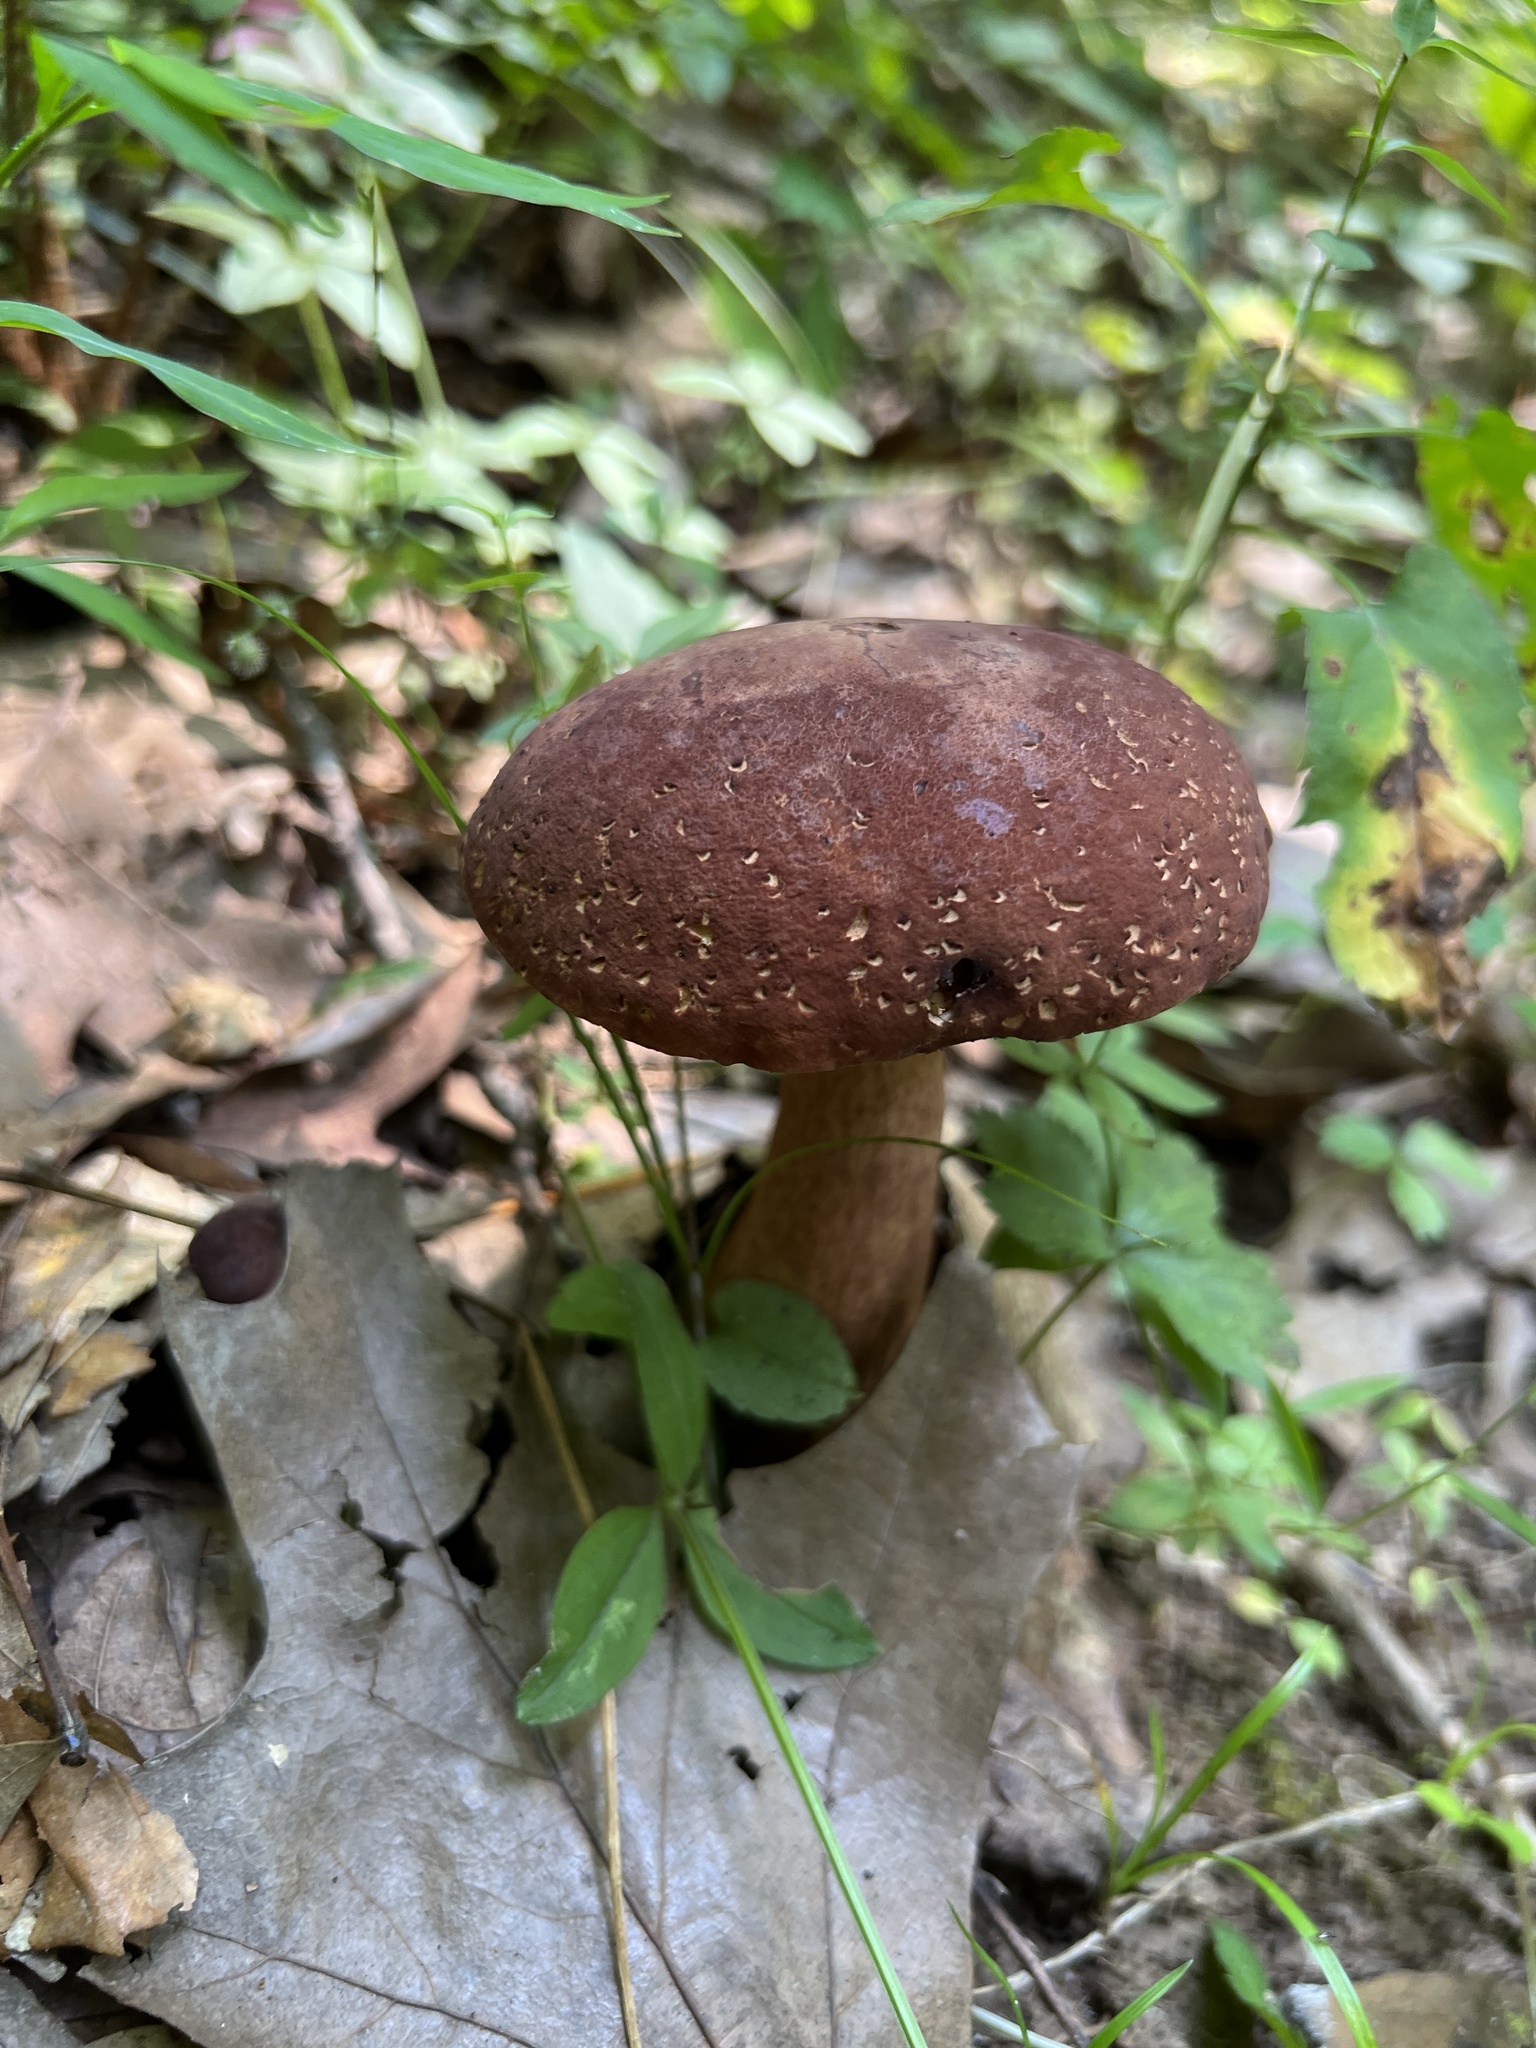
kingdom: Fungi
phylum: Basidiomycota
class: Agaricomycetes
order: Boletales
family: Boletaceae
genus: Tylopilus
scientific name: Tylopilus rubrobrunneus
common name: Reddish brown bitter bolete
